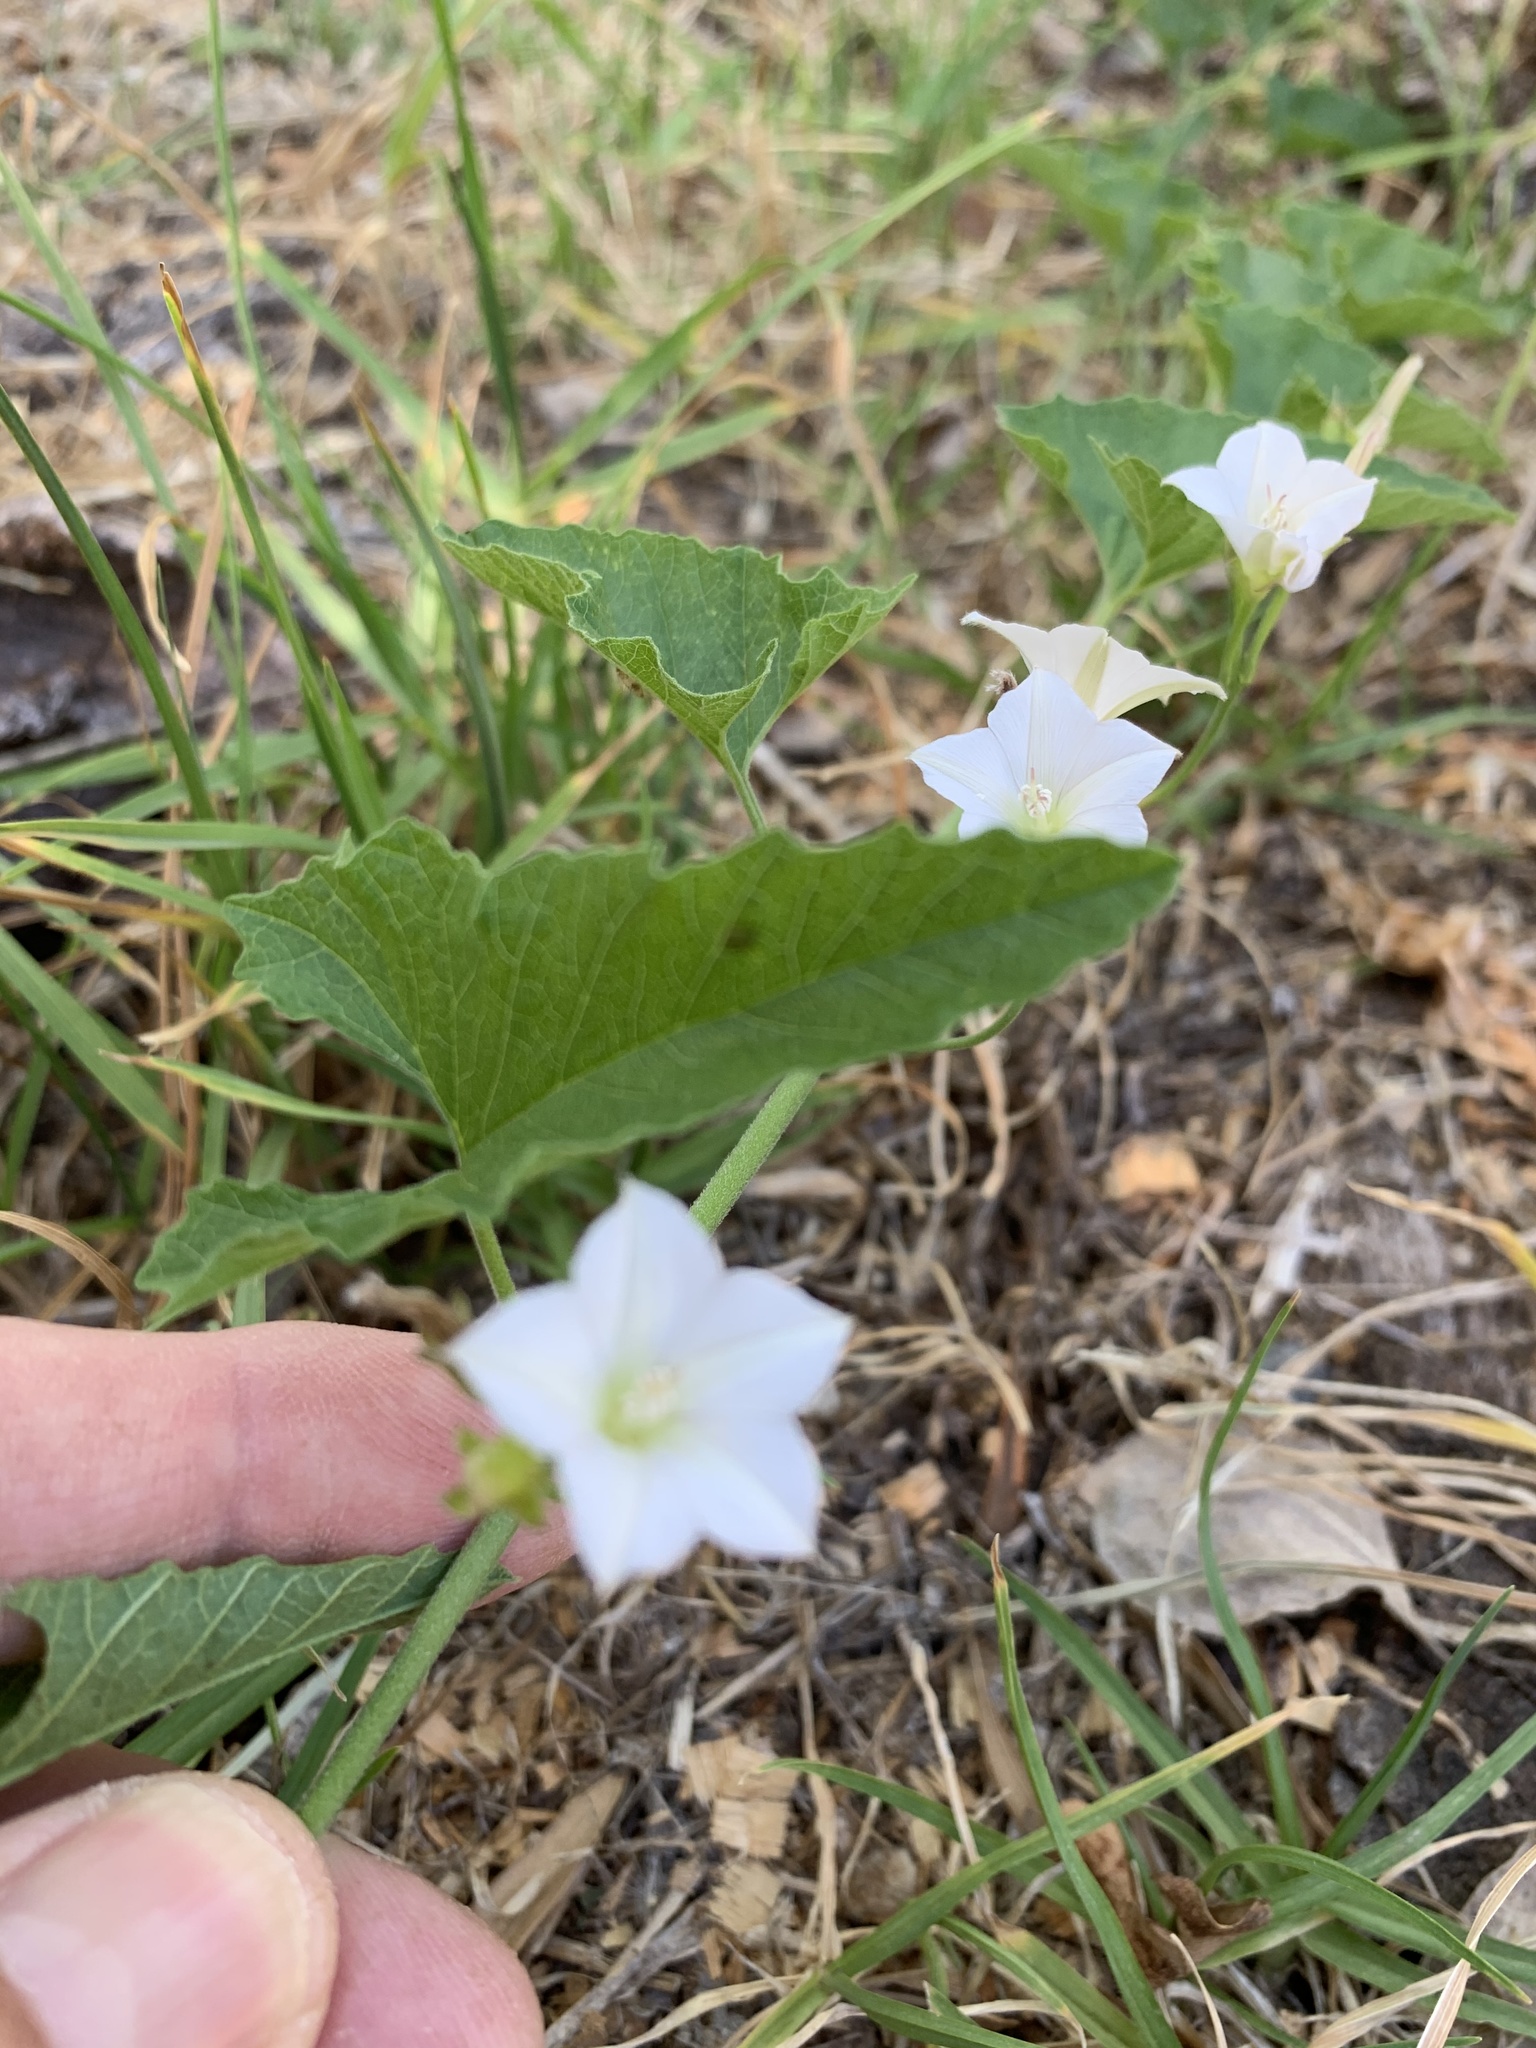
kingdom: Plantae
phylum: Tracheophyta
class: Magnoliopsida
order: Solanales
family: Convolvulaceae
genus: Convolvulus
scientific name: Convolvulus farinosus
